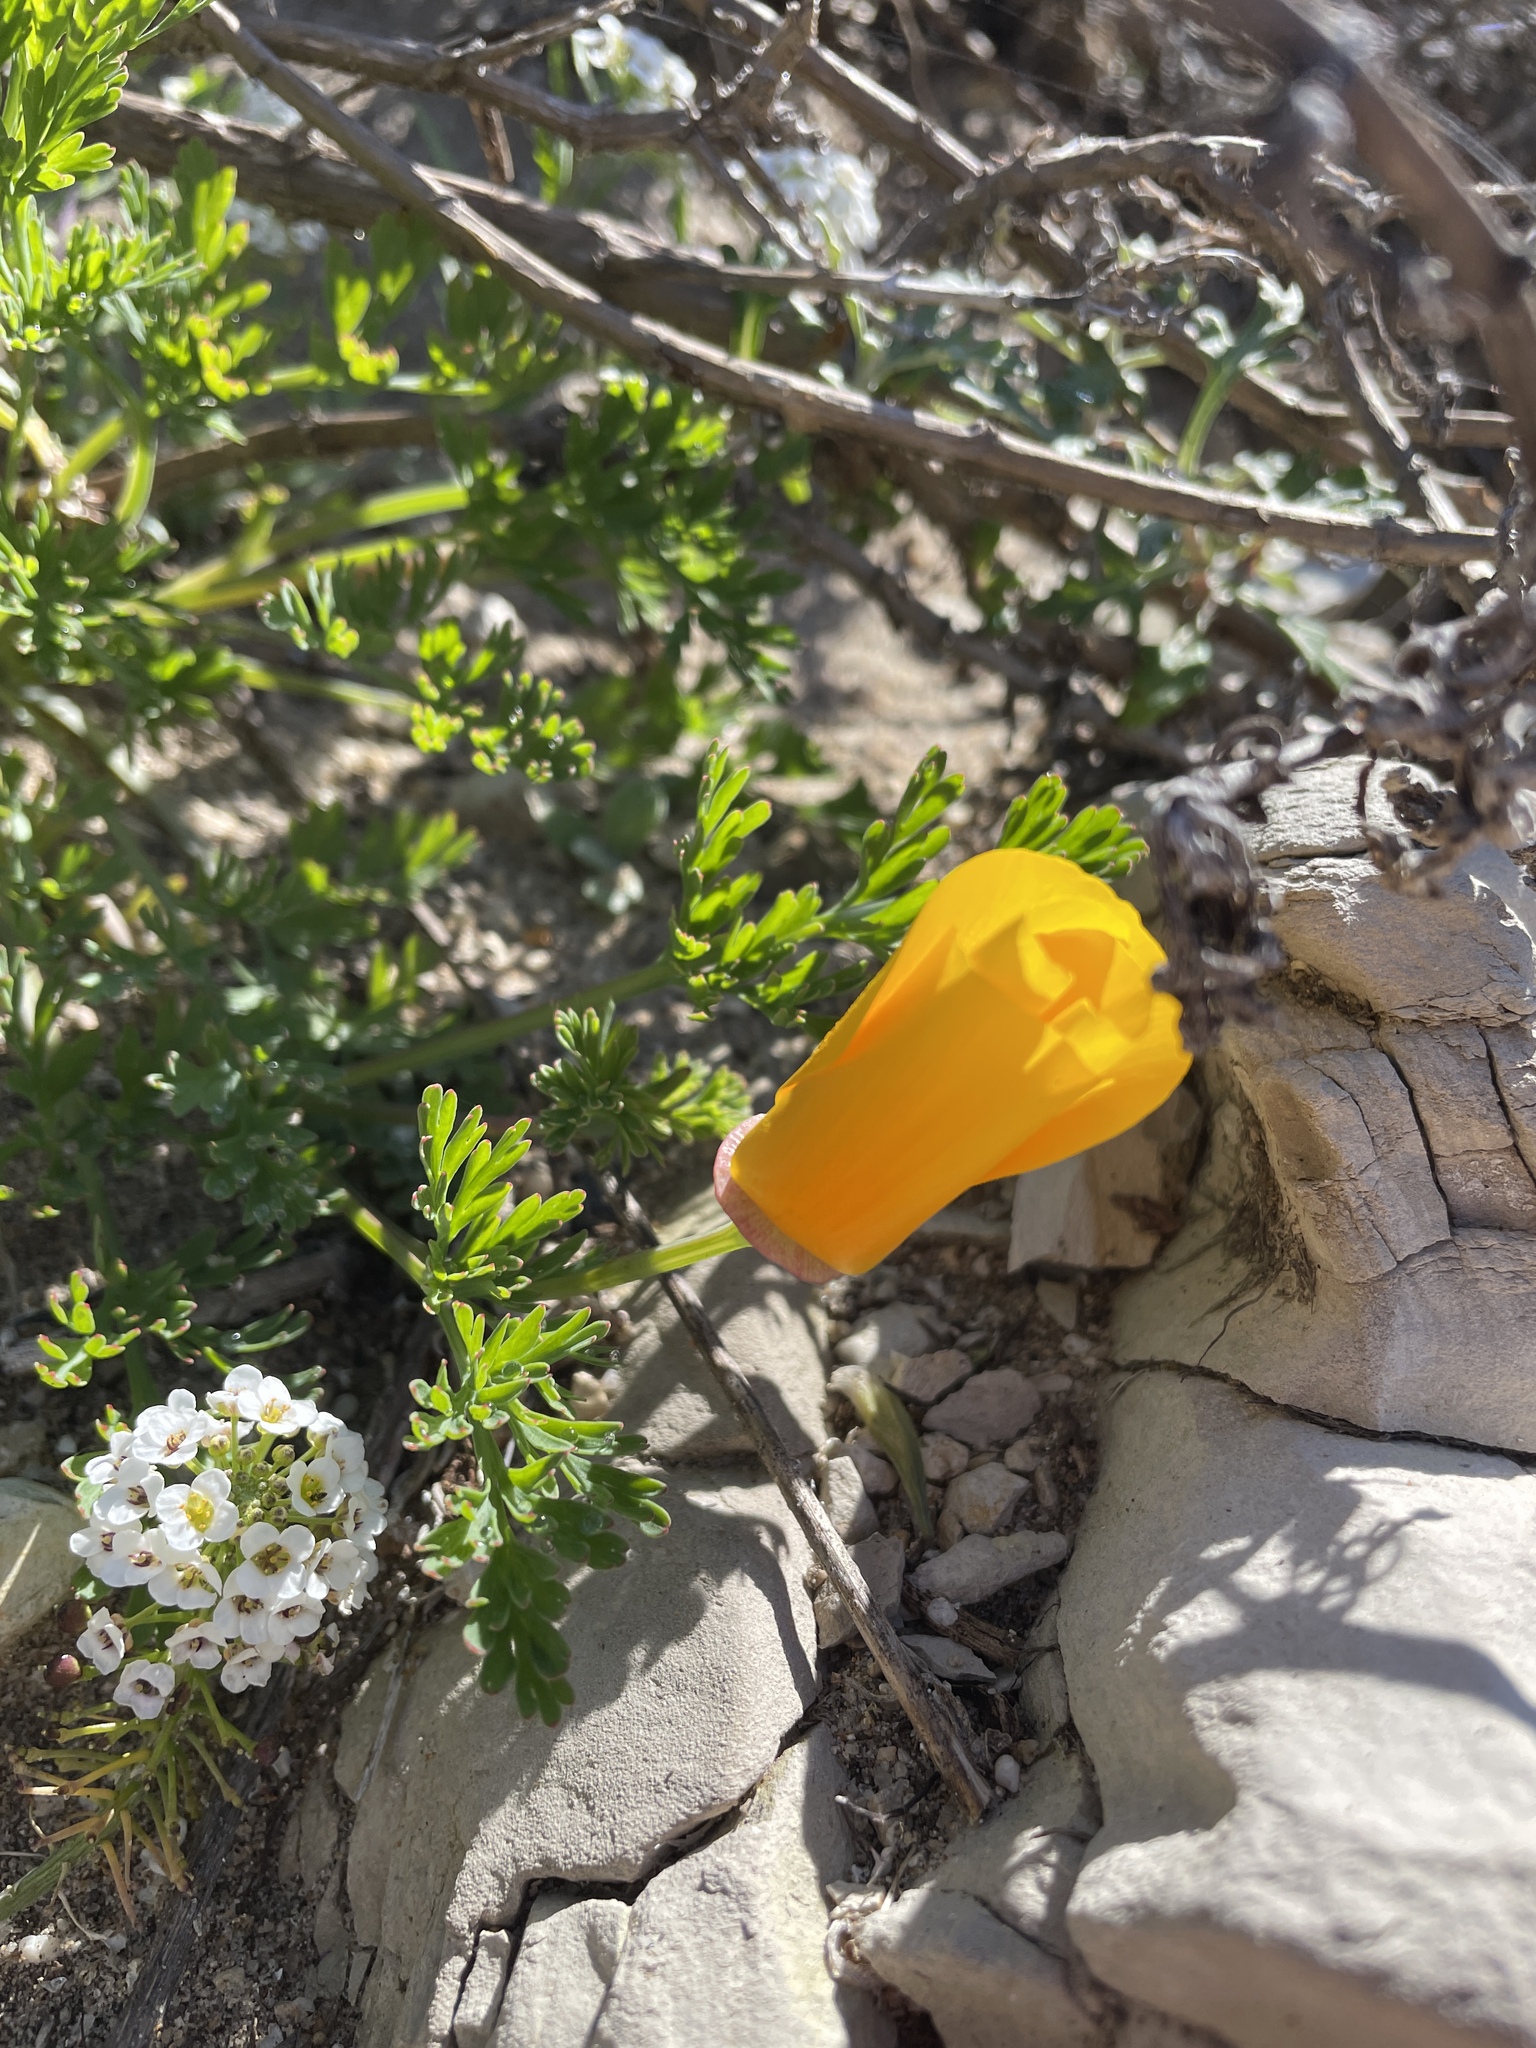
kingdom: Plantae
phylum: Tracheophyta
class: Magnoliopsida
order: Ranunculales
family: Papaveraceae
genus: Eschscholzia
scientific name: Eschscholzia californica
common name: California poppy
